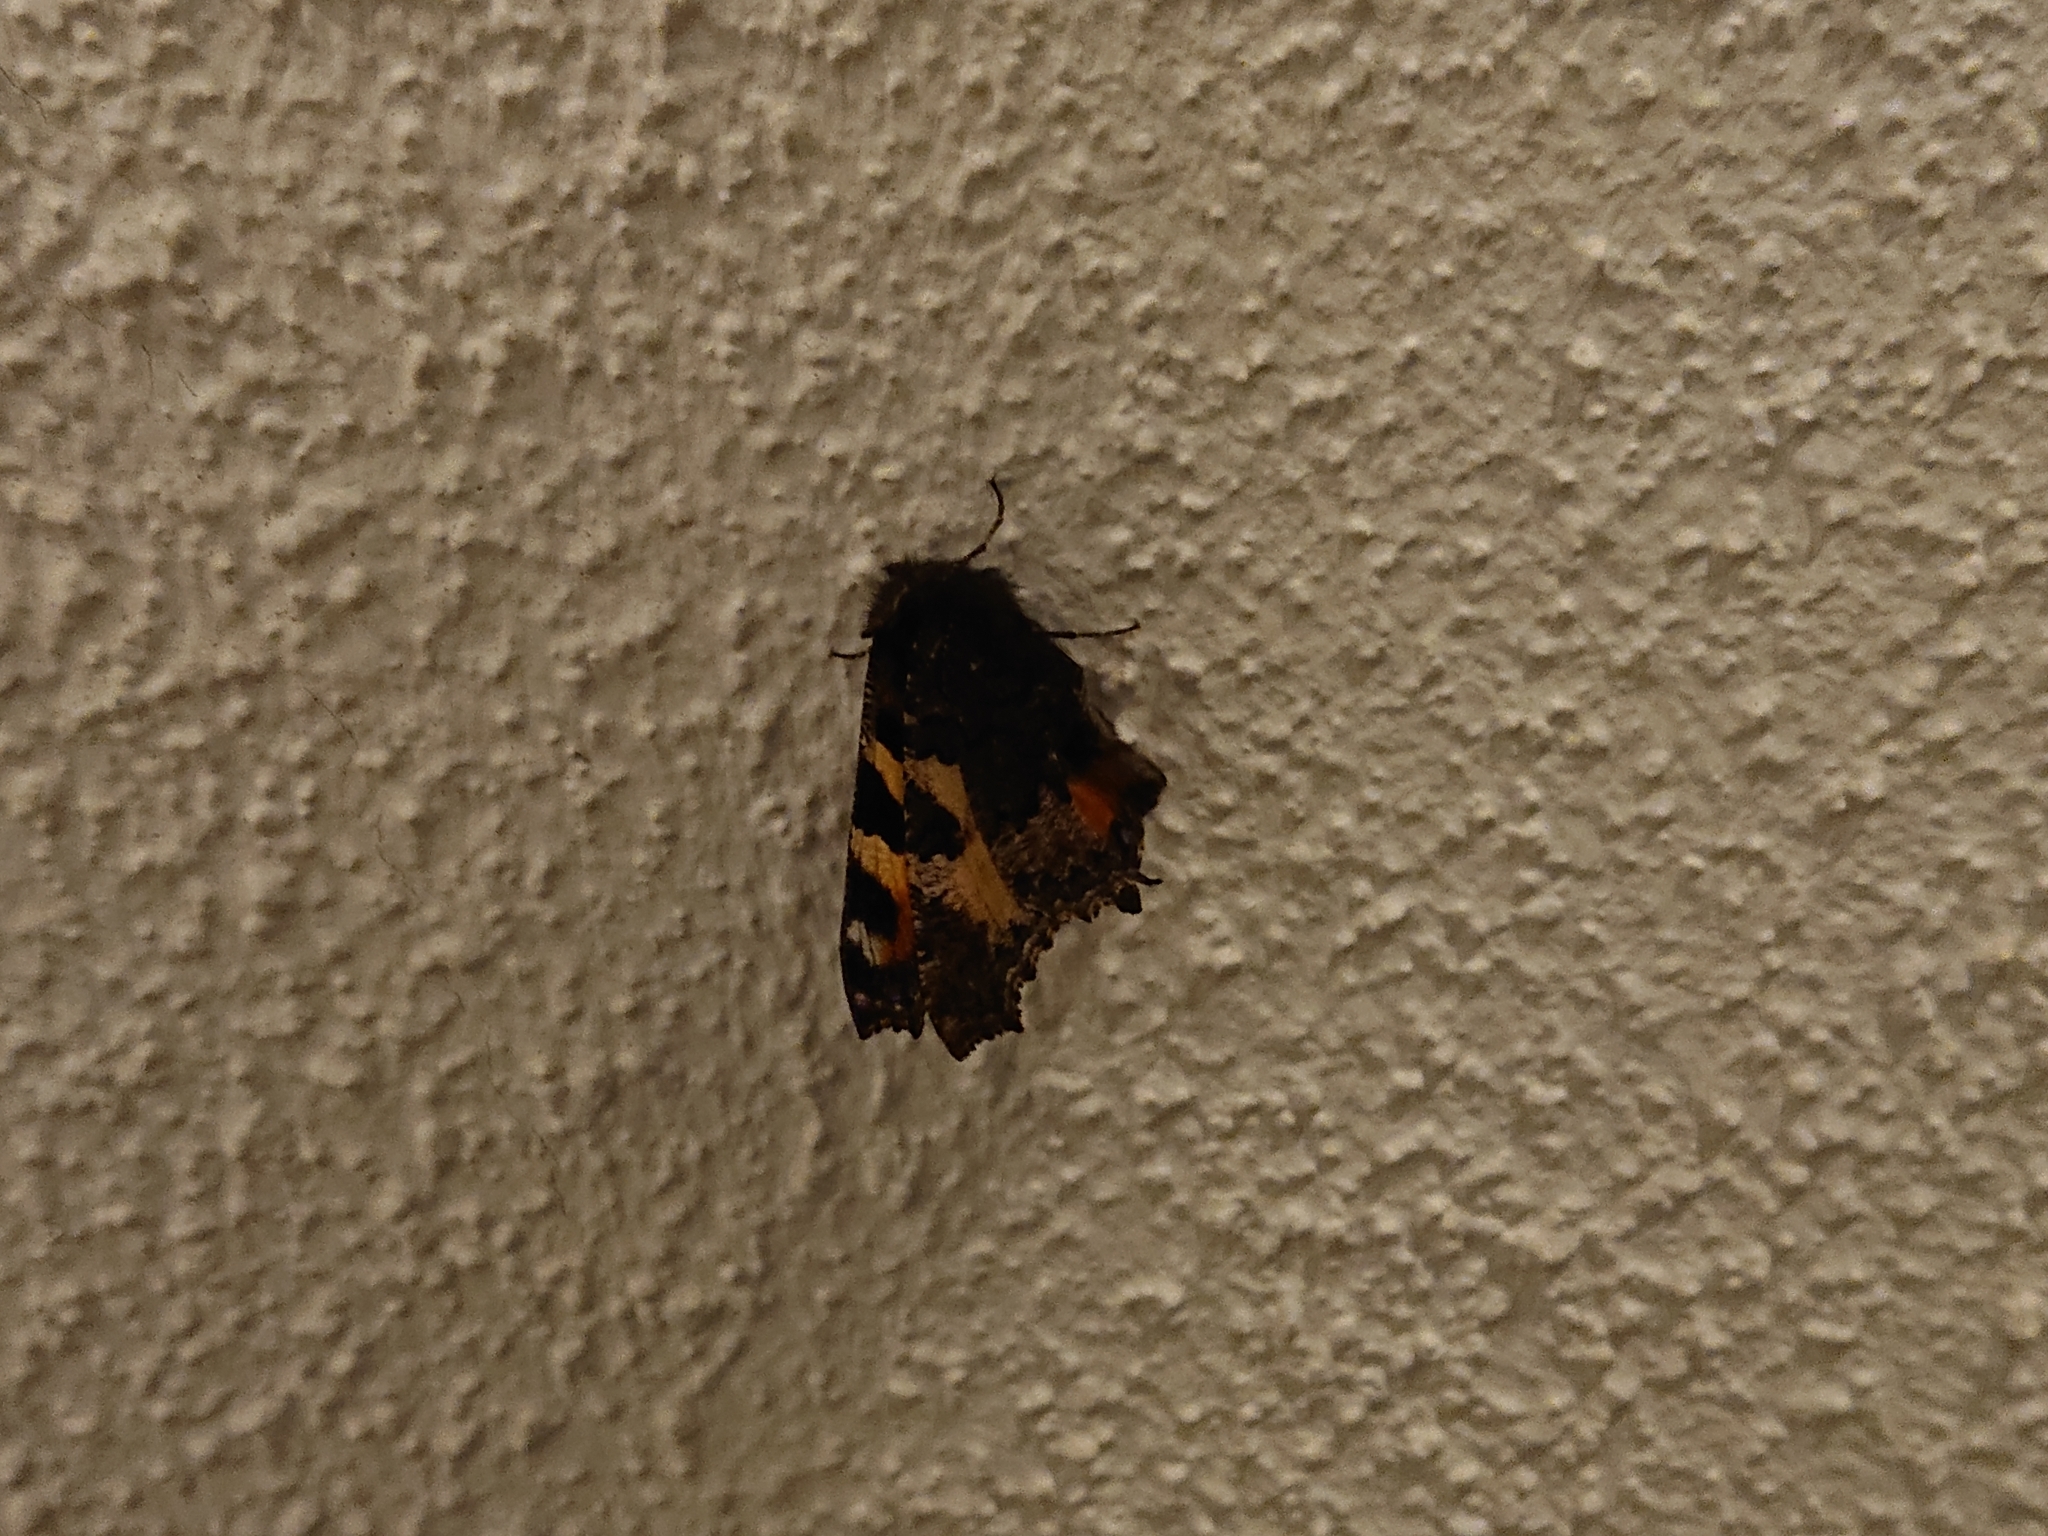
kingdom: Animalia
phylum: Arthropoda
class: Insecta
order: Lepidoptera
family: Nymphalidae
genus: Aglais
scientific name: Aglais urticae
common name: Small tortoiseshell
